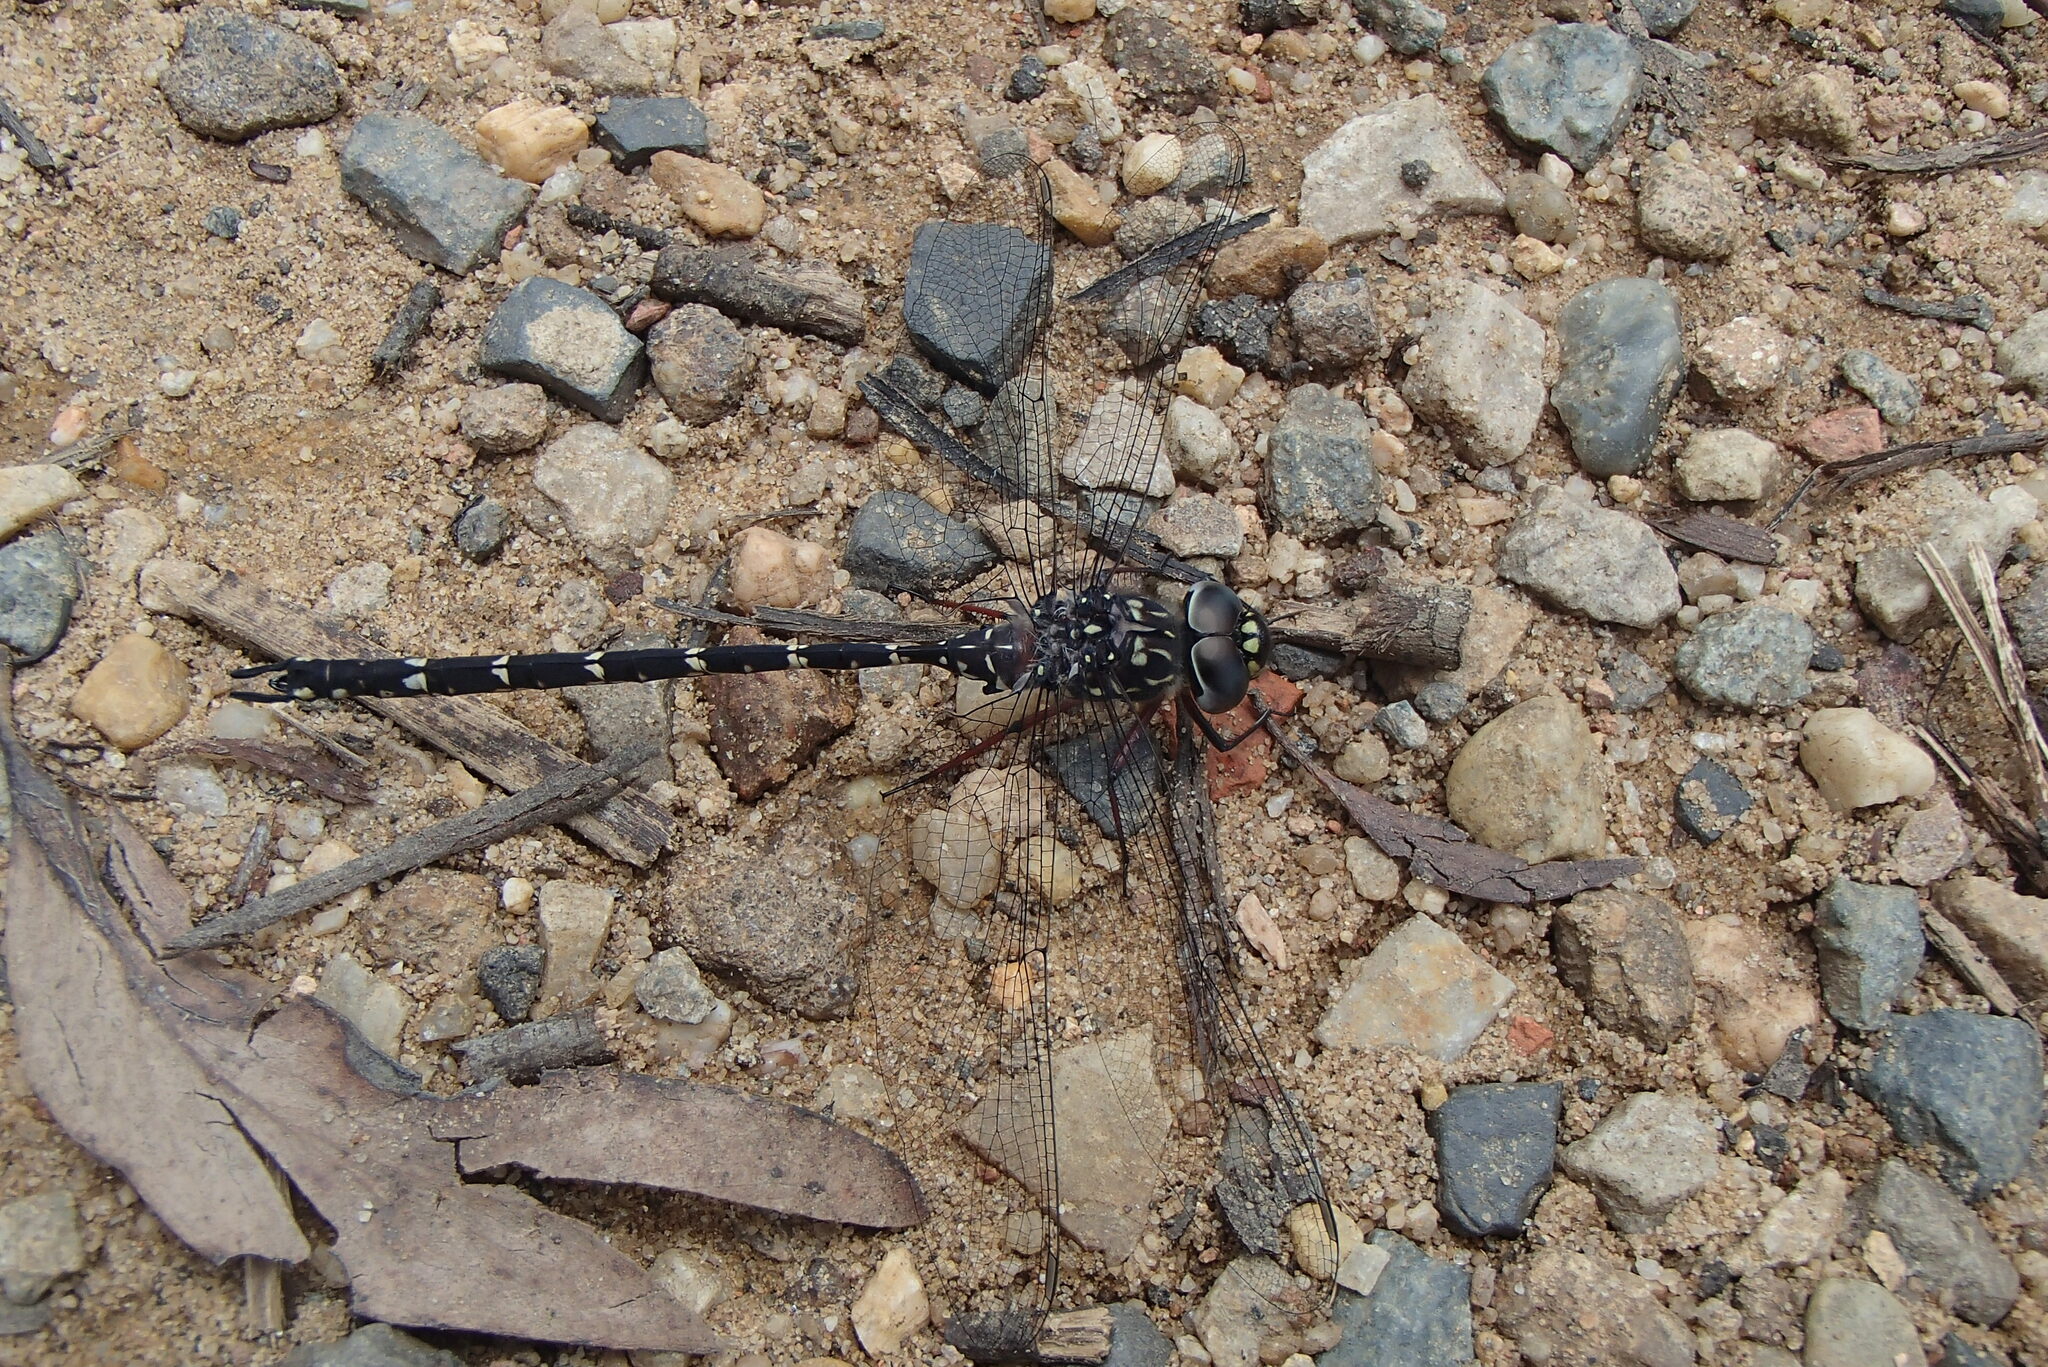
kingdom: Animalia
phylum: Arthropoda
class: Insecta
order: Odonata
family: Aeshnidae
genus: Austroaeschna
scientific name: Austroaeschna obscura
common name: Sydney mountain darner
